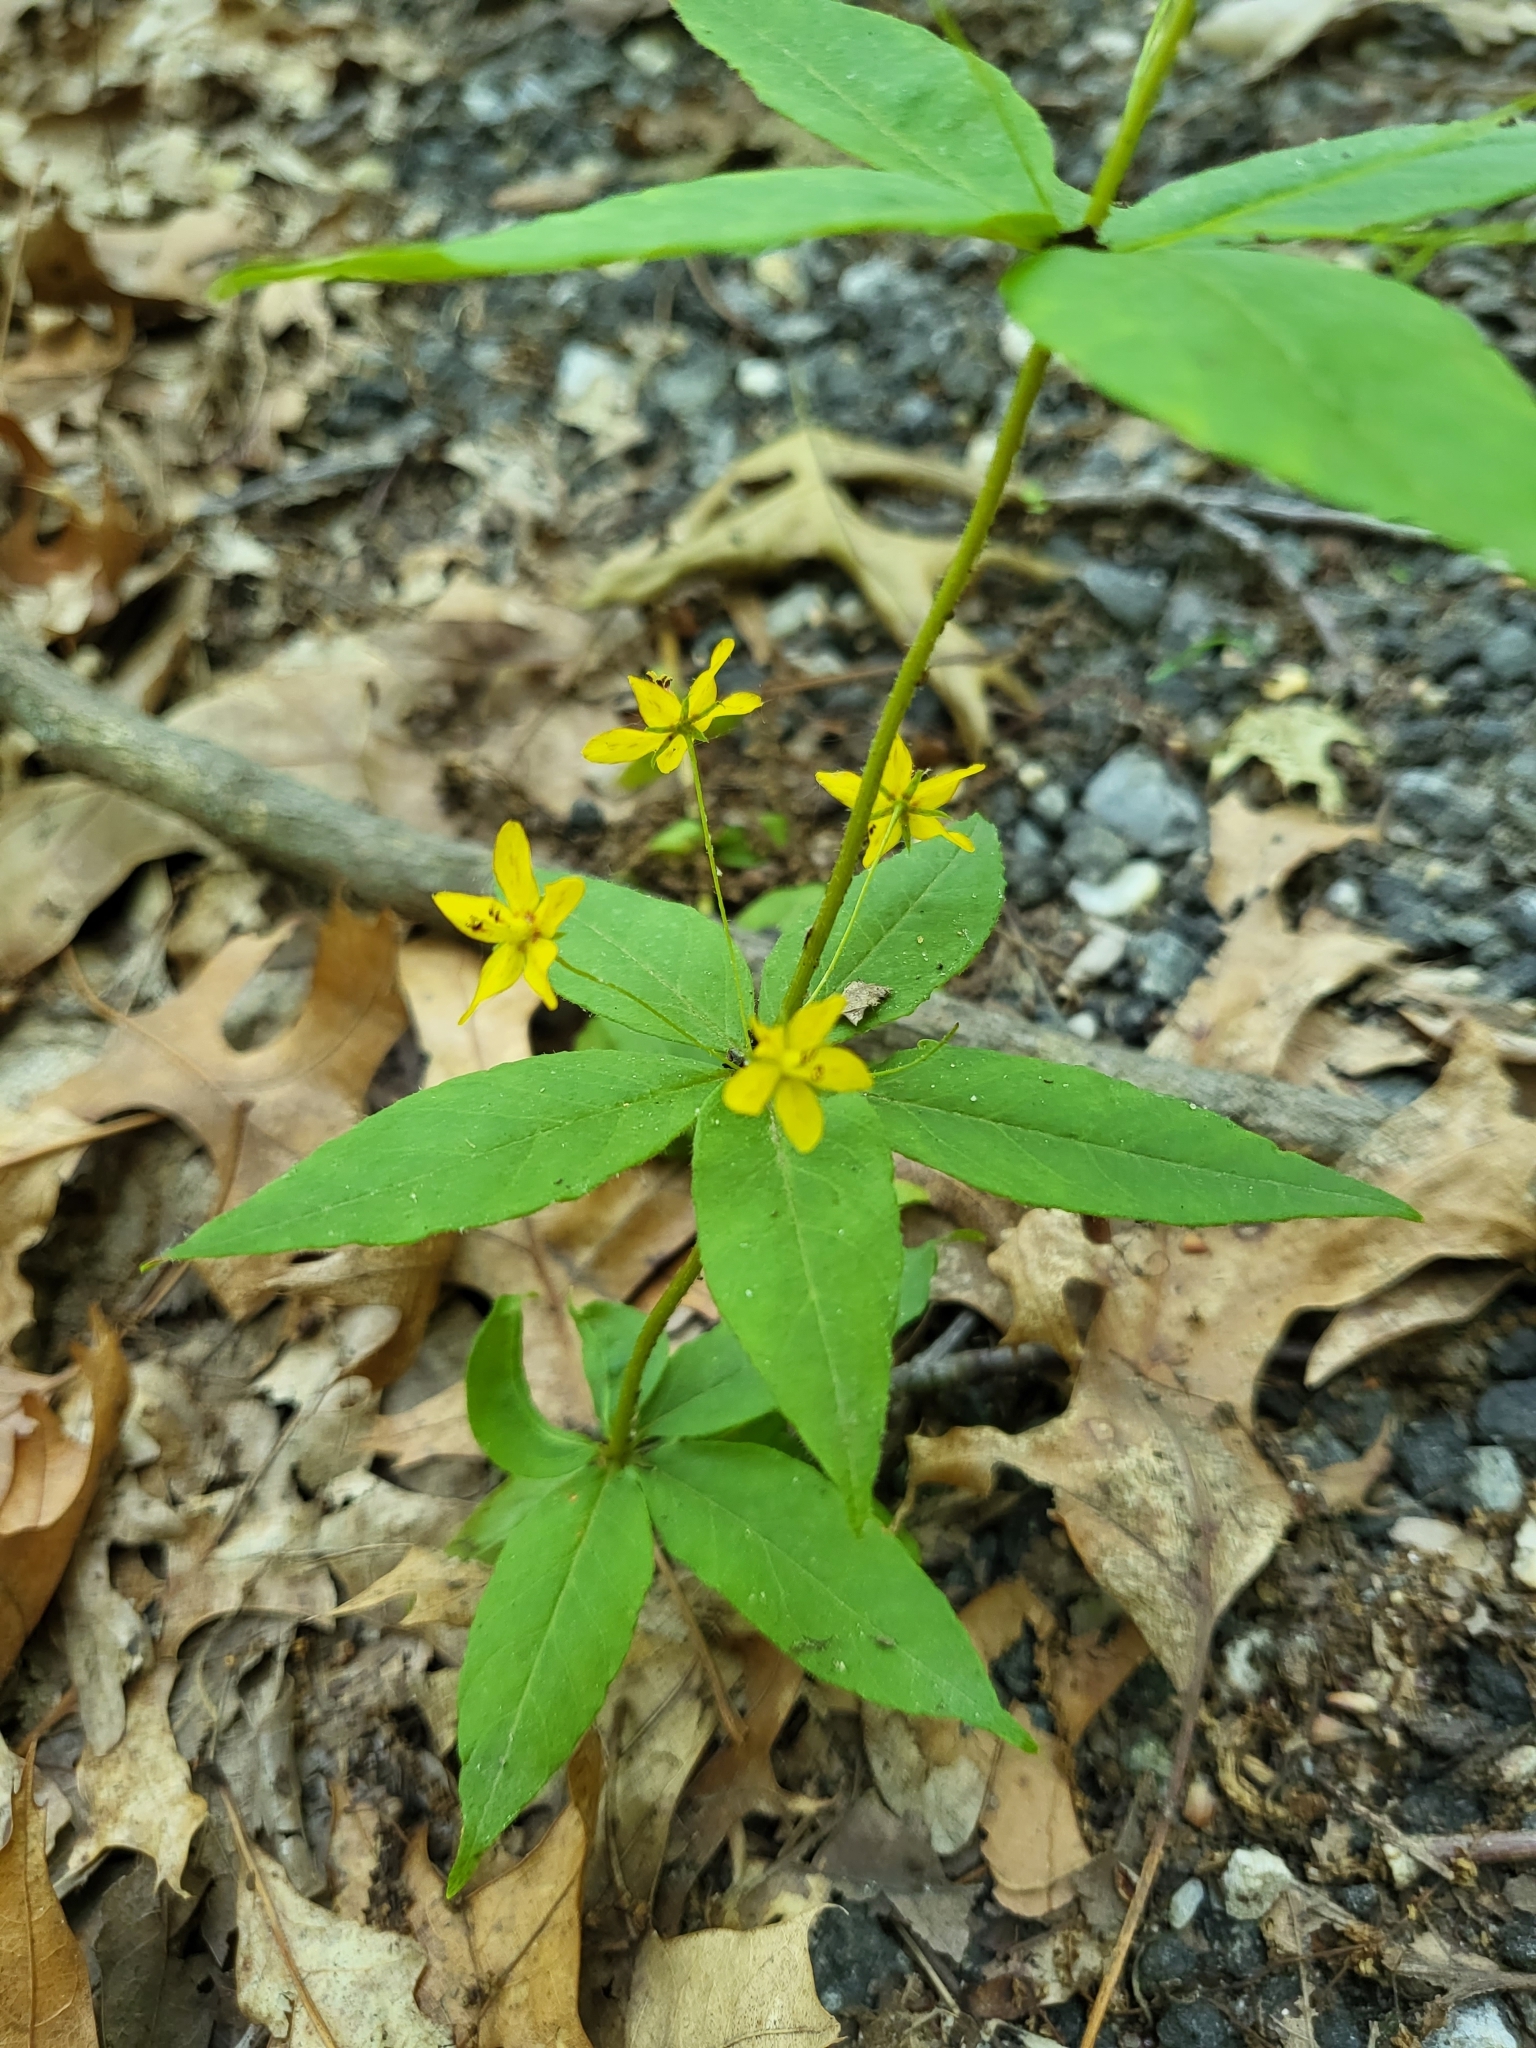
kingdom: Plantae
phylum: Tracheophyta
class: Magnoliopsida
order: Ericales
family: Primulaceae
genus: Lysimachia
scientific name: Lysimachia quadrifolia
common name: Whorled loosestrife
